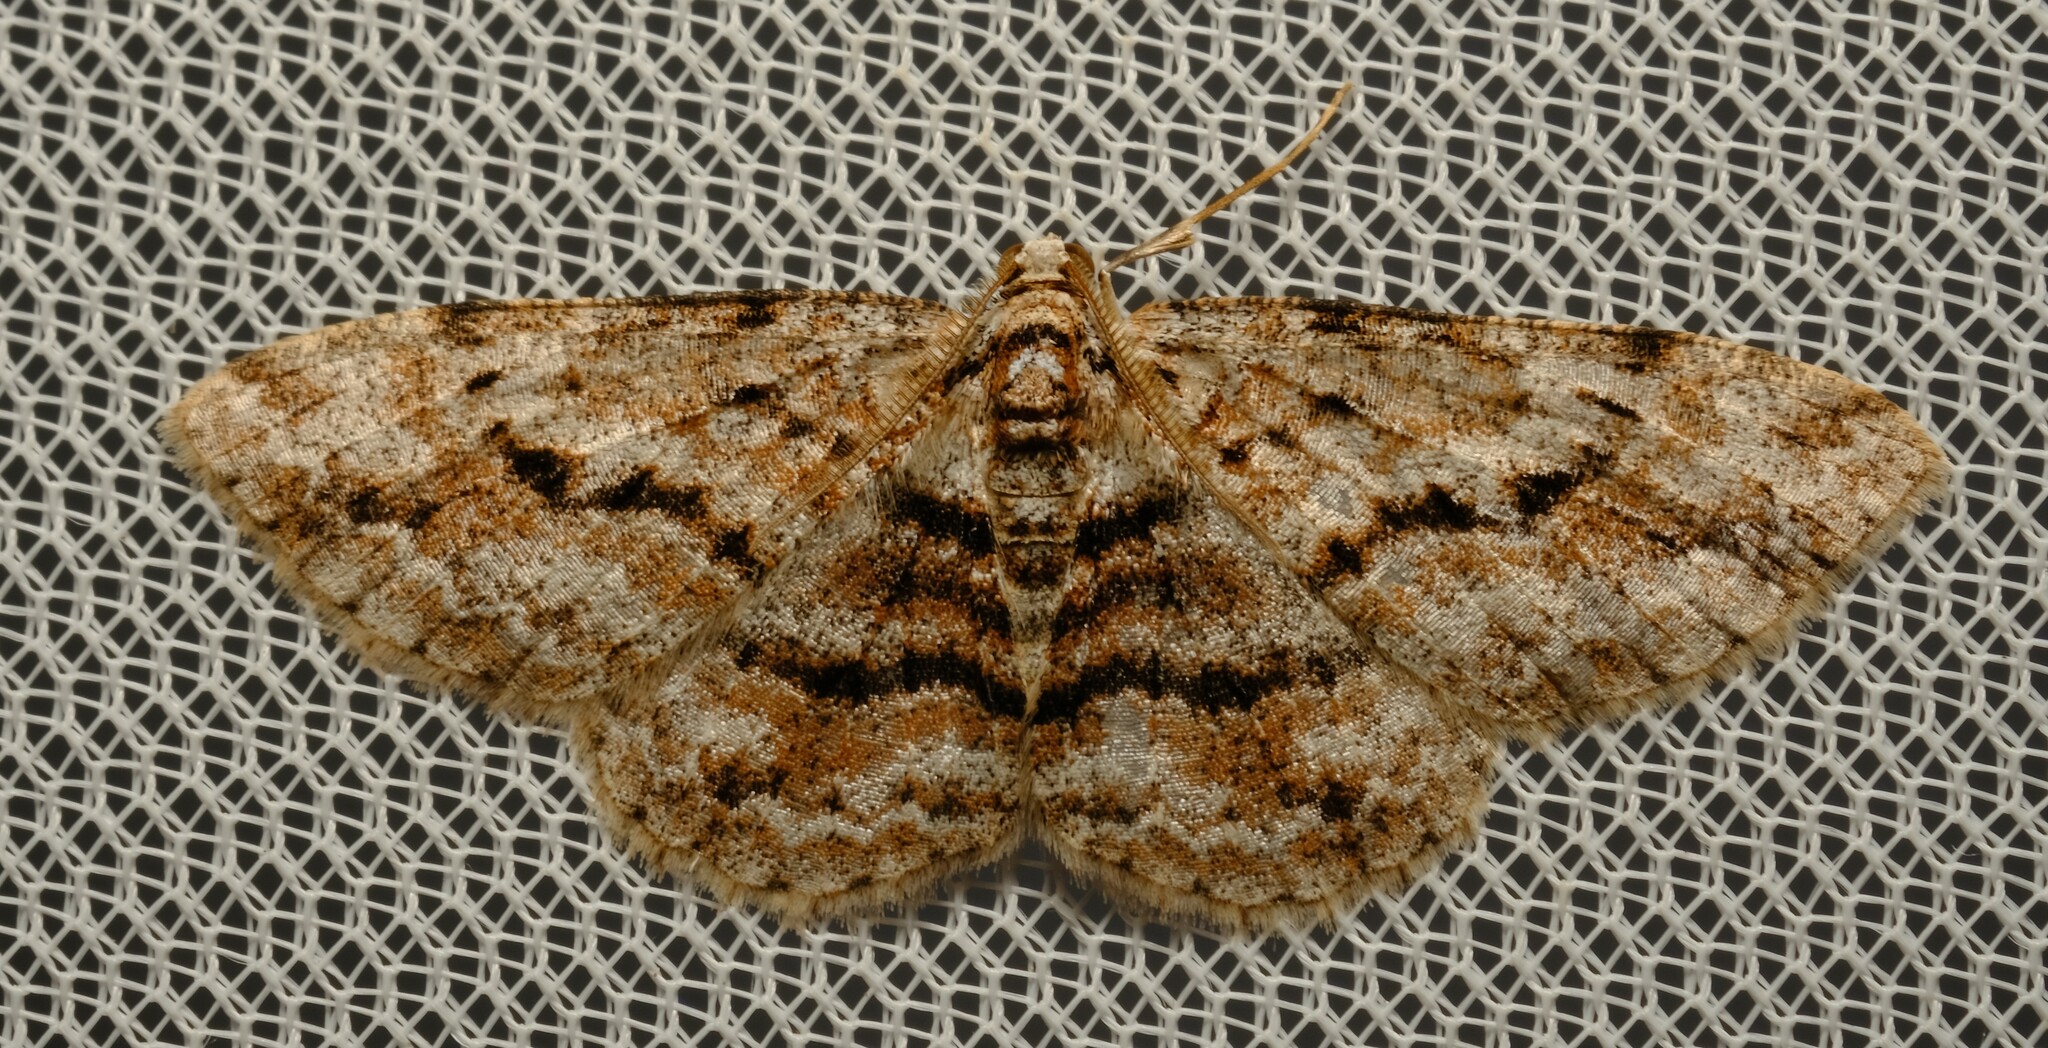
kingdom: Animalia
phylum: Arthropoda
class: Insecta
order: Lepidoptera
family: Geometridae
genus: Didymoctenia
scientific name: Didymoctenia exsuperata
